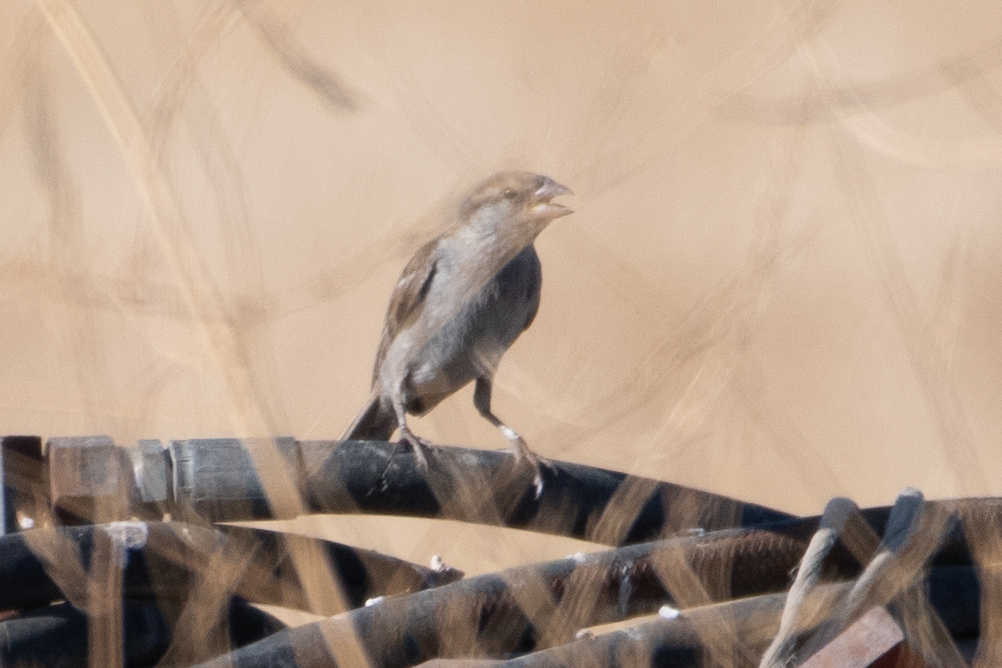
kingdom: Animalia
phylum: Chordata
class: Aves
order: Passeriformes
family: Passeridae
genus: Passer
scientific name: Passer domesticus
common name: House sparrow
